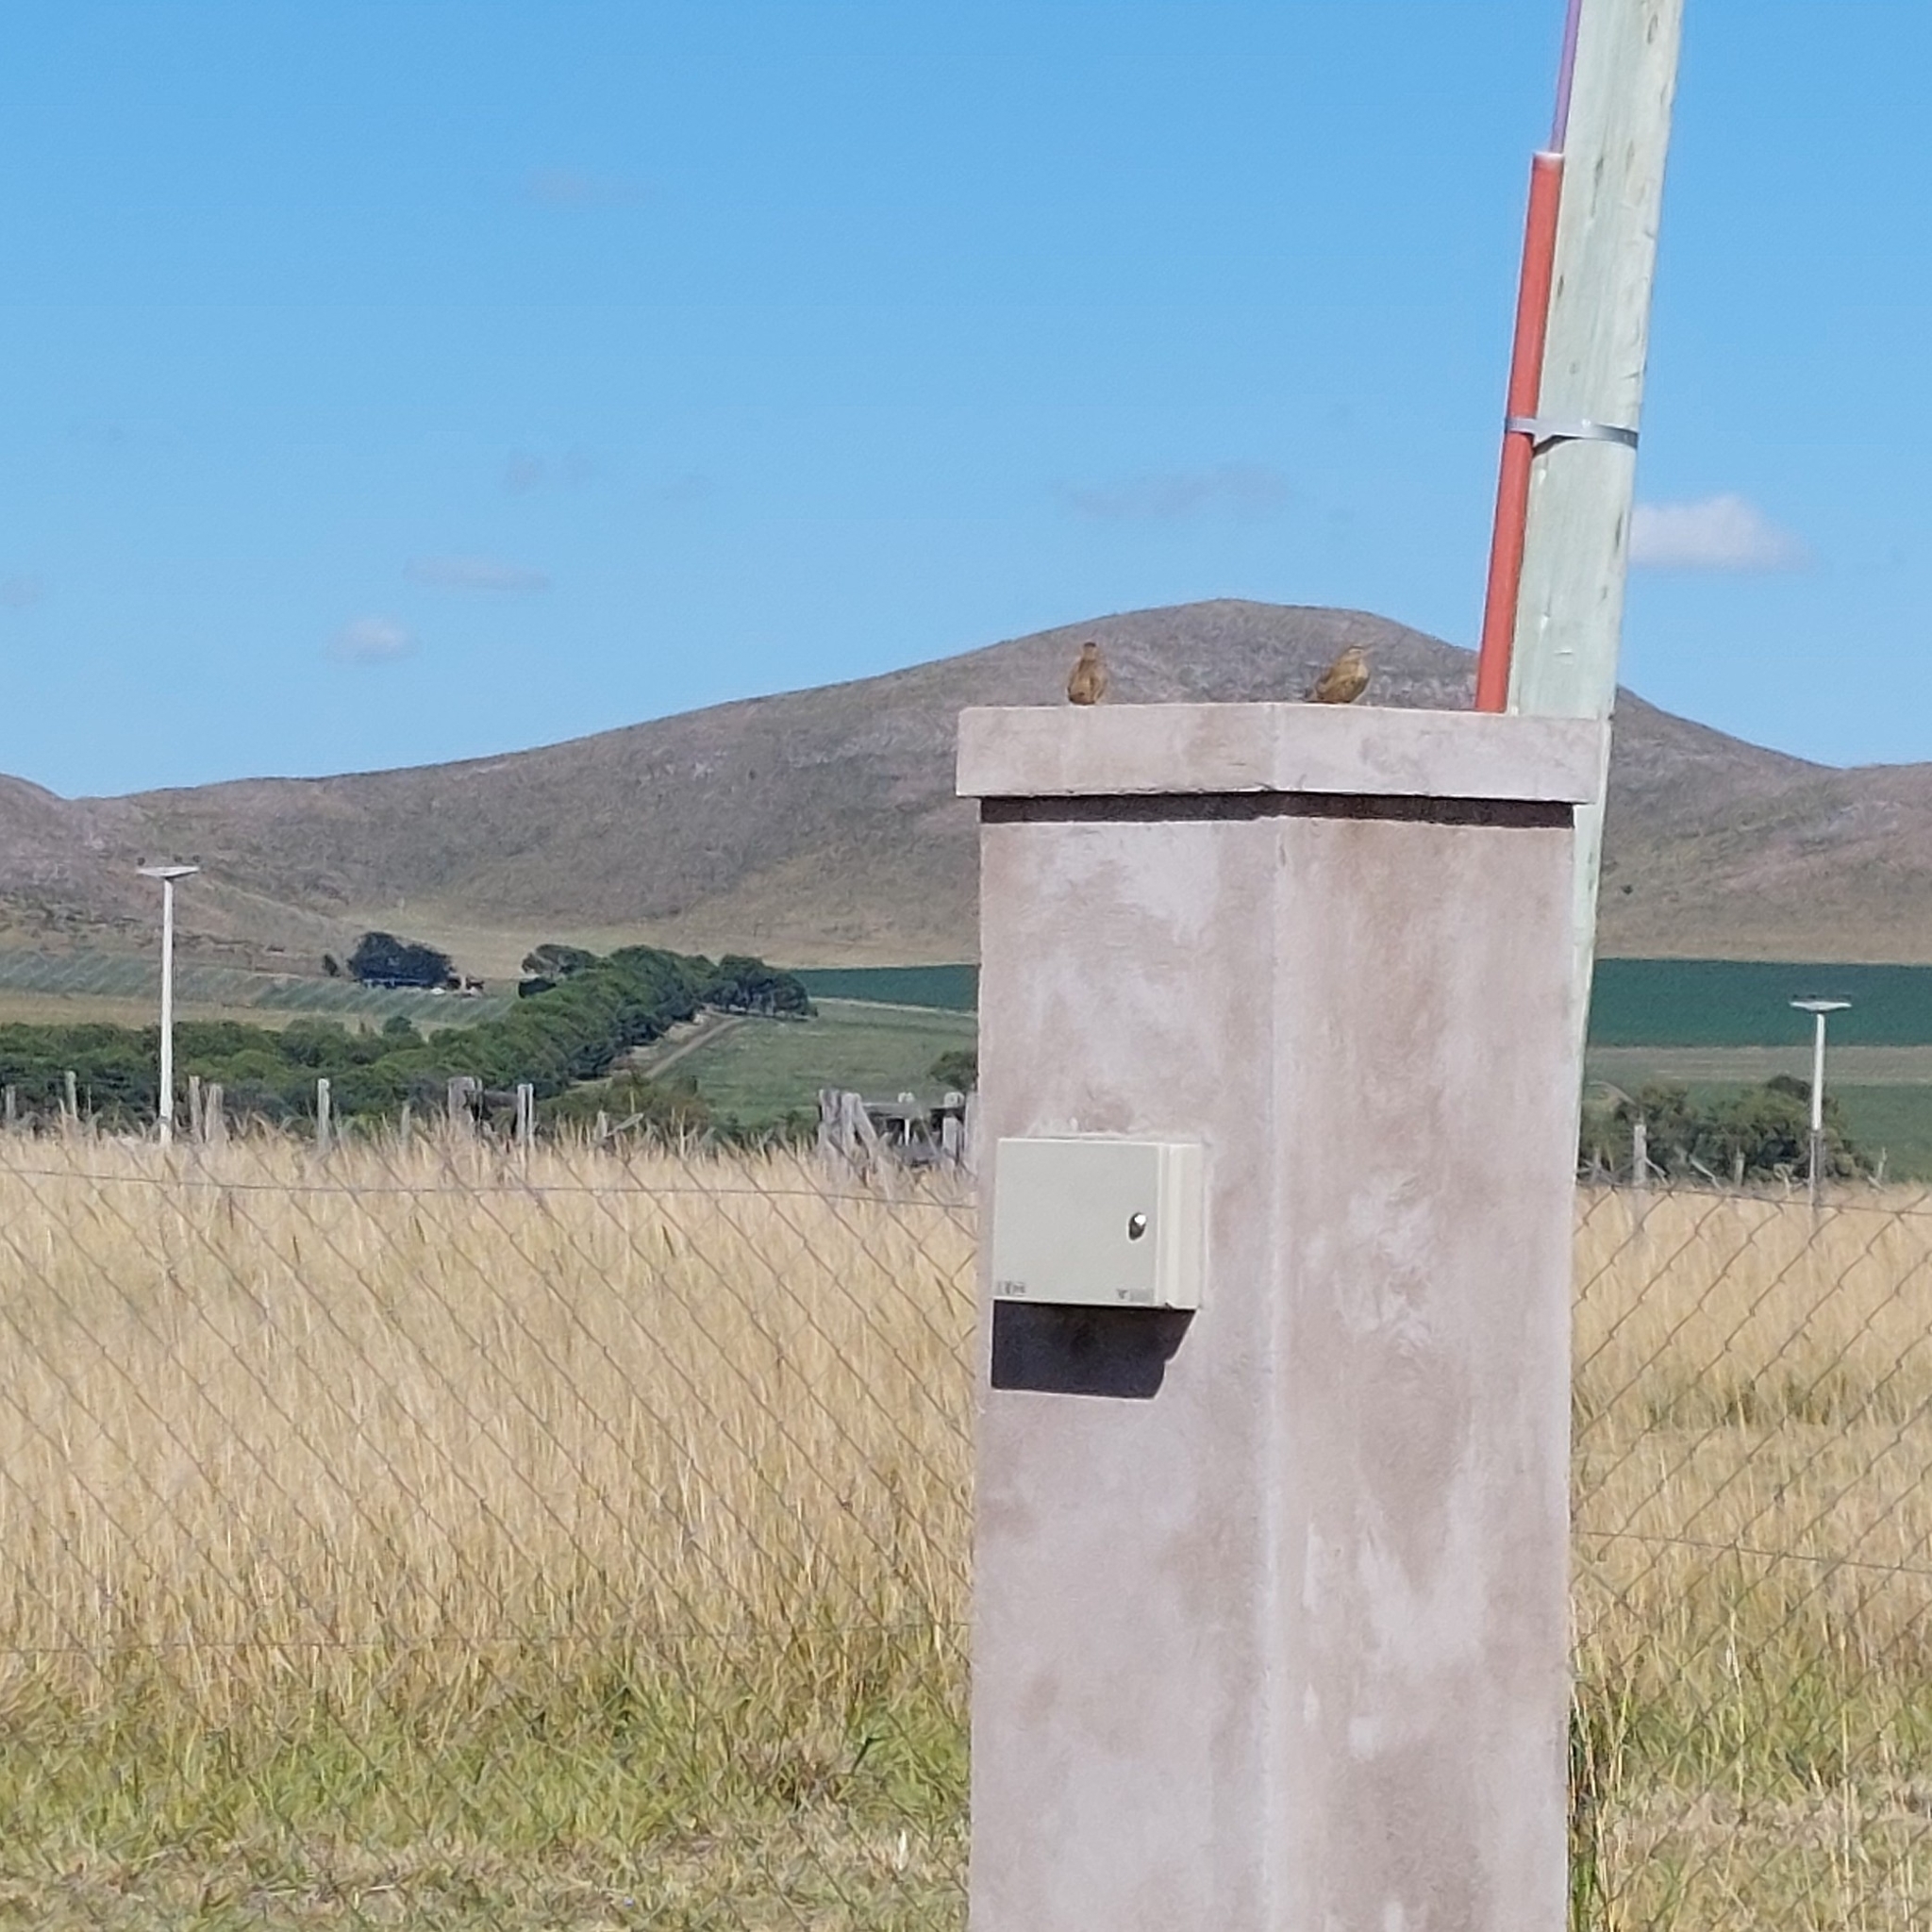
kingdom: Animalia
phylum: Chordata
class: Aves
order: Passeriformes
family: Furnariidae
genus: Anumbius
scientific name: Anumbius annumbi
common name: Firewood-gatherer
